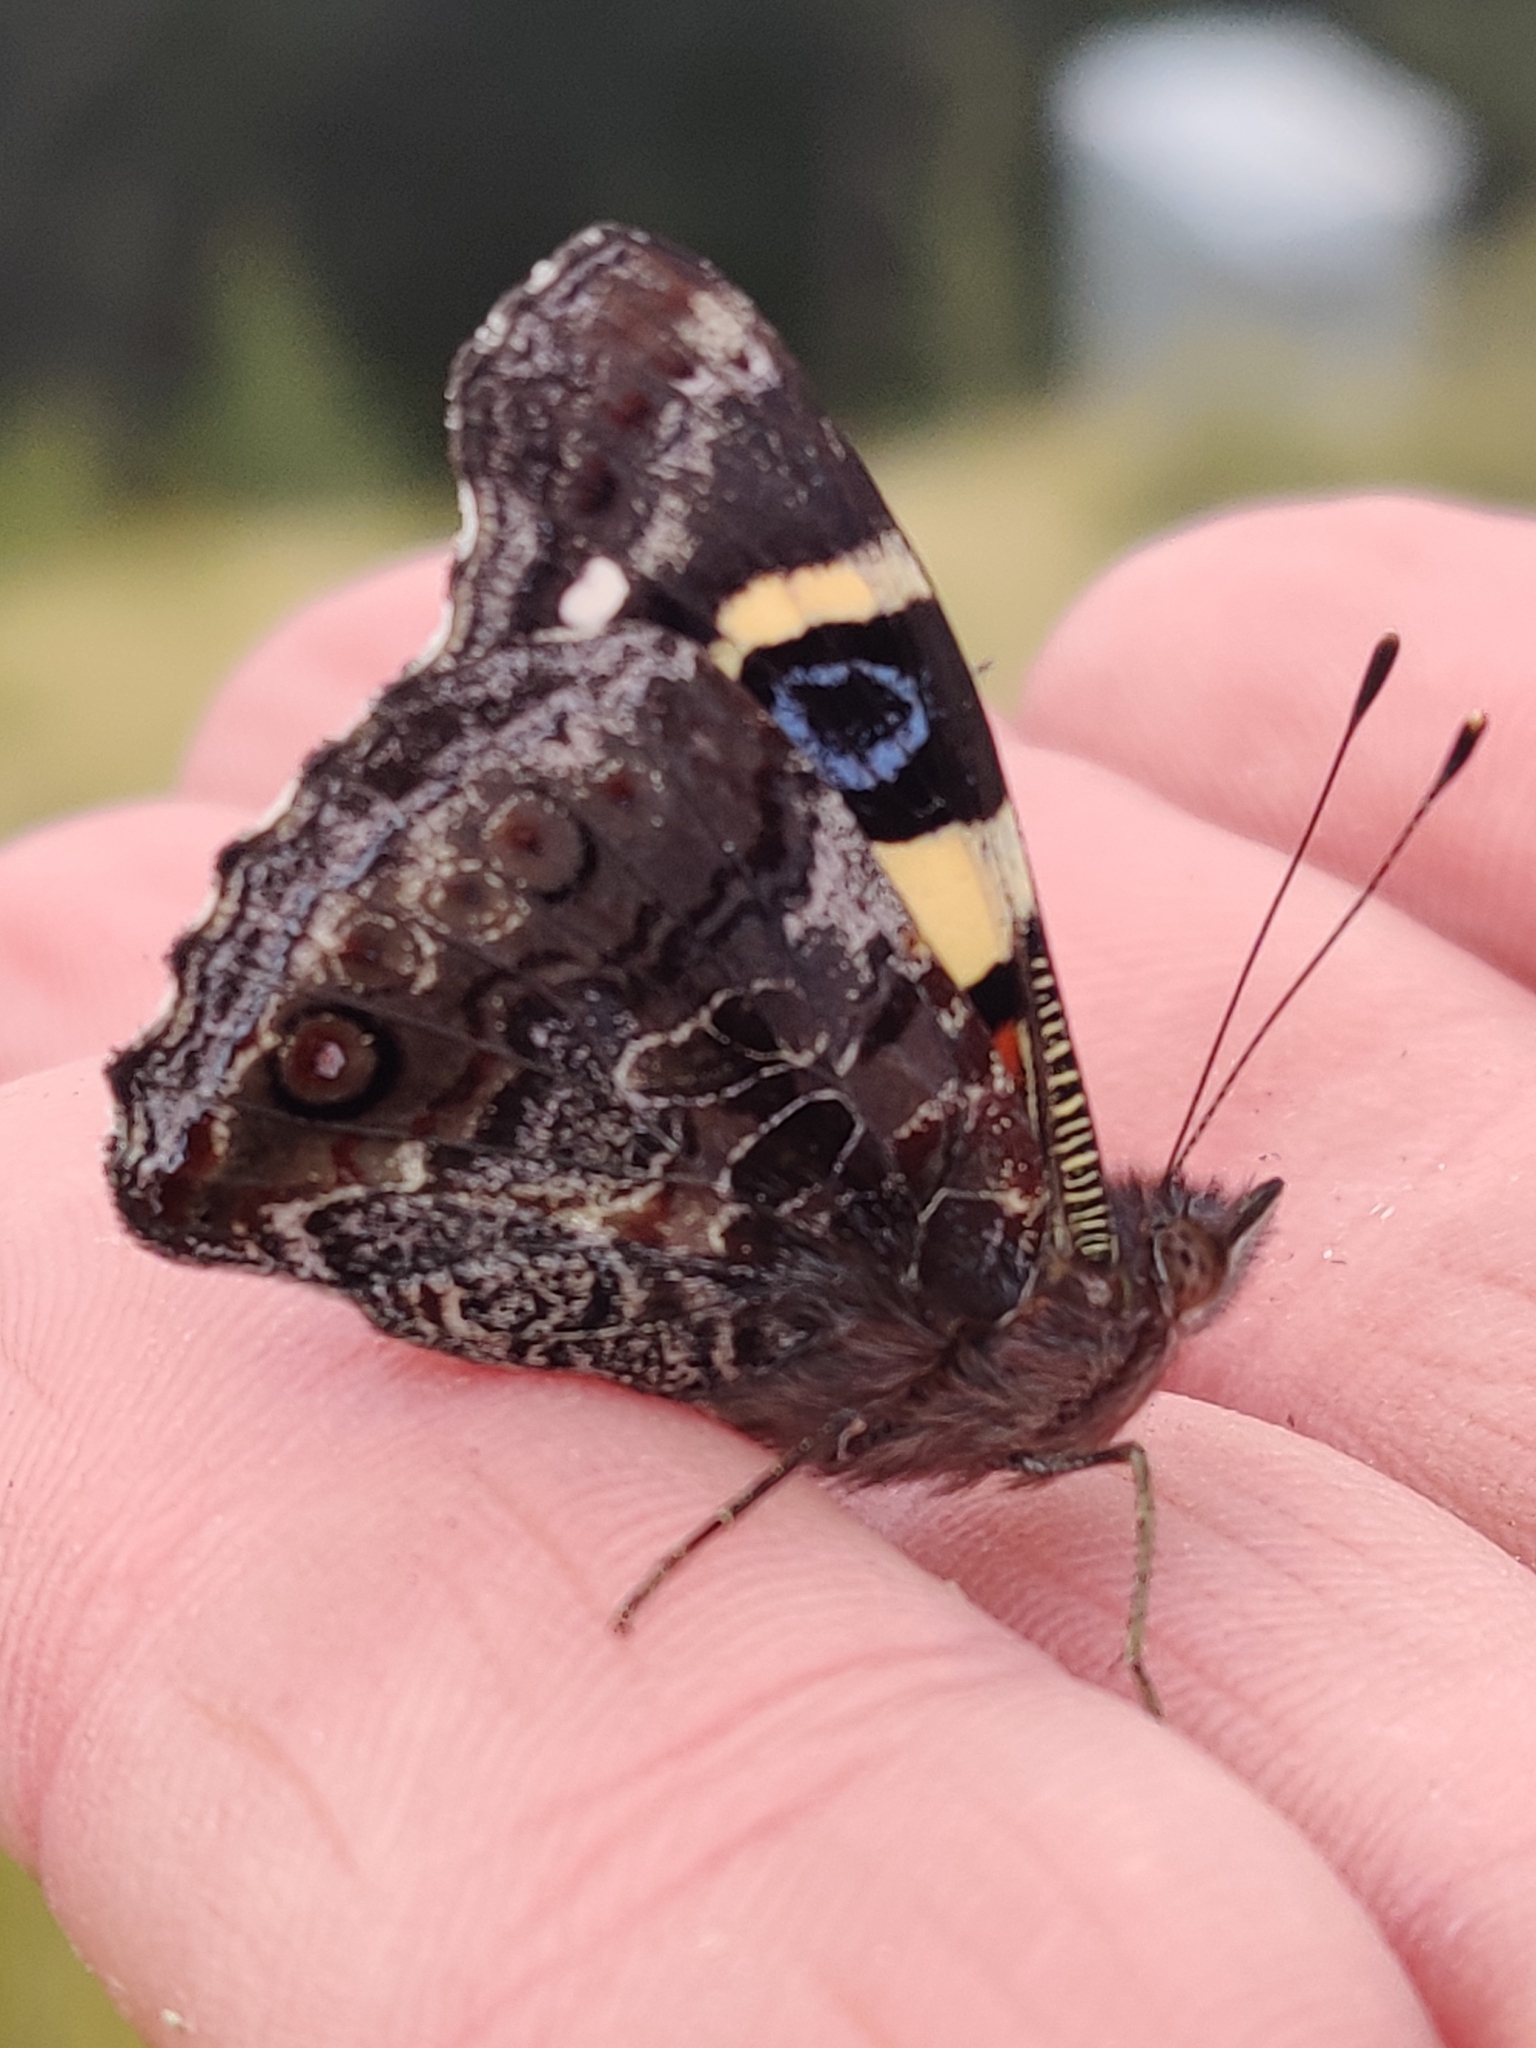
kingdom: Animalia
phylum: Arthropoda
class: Insecta
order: Lepidoptera
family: Nymphalidae
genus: Vanessa
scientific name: Vanessa itea
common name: Yellow admiral
